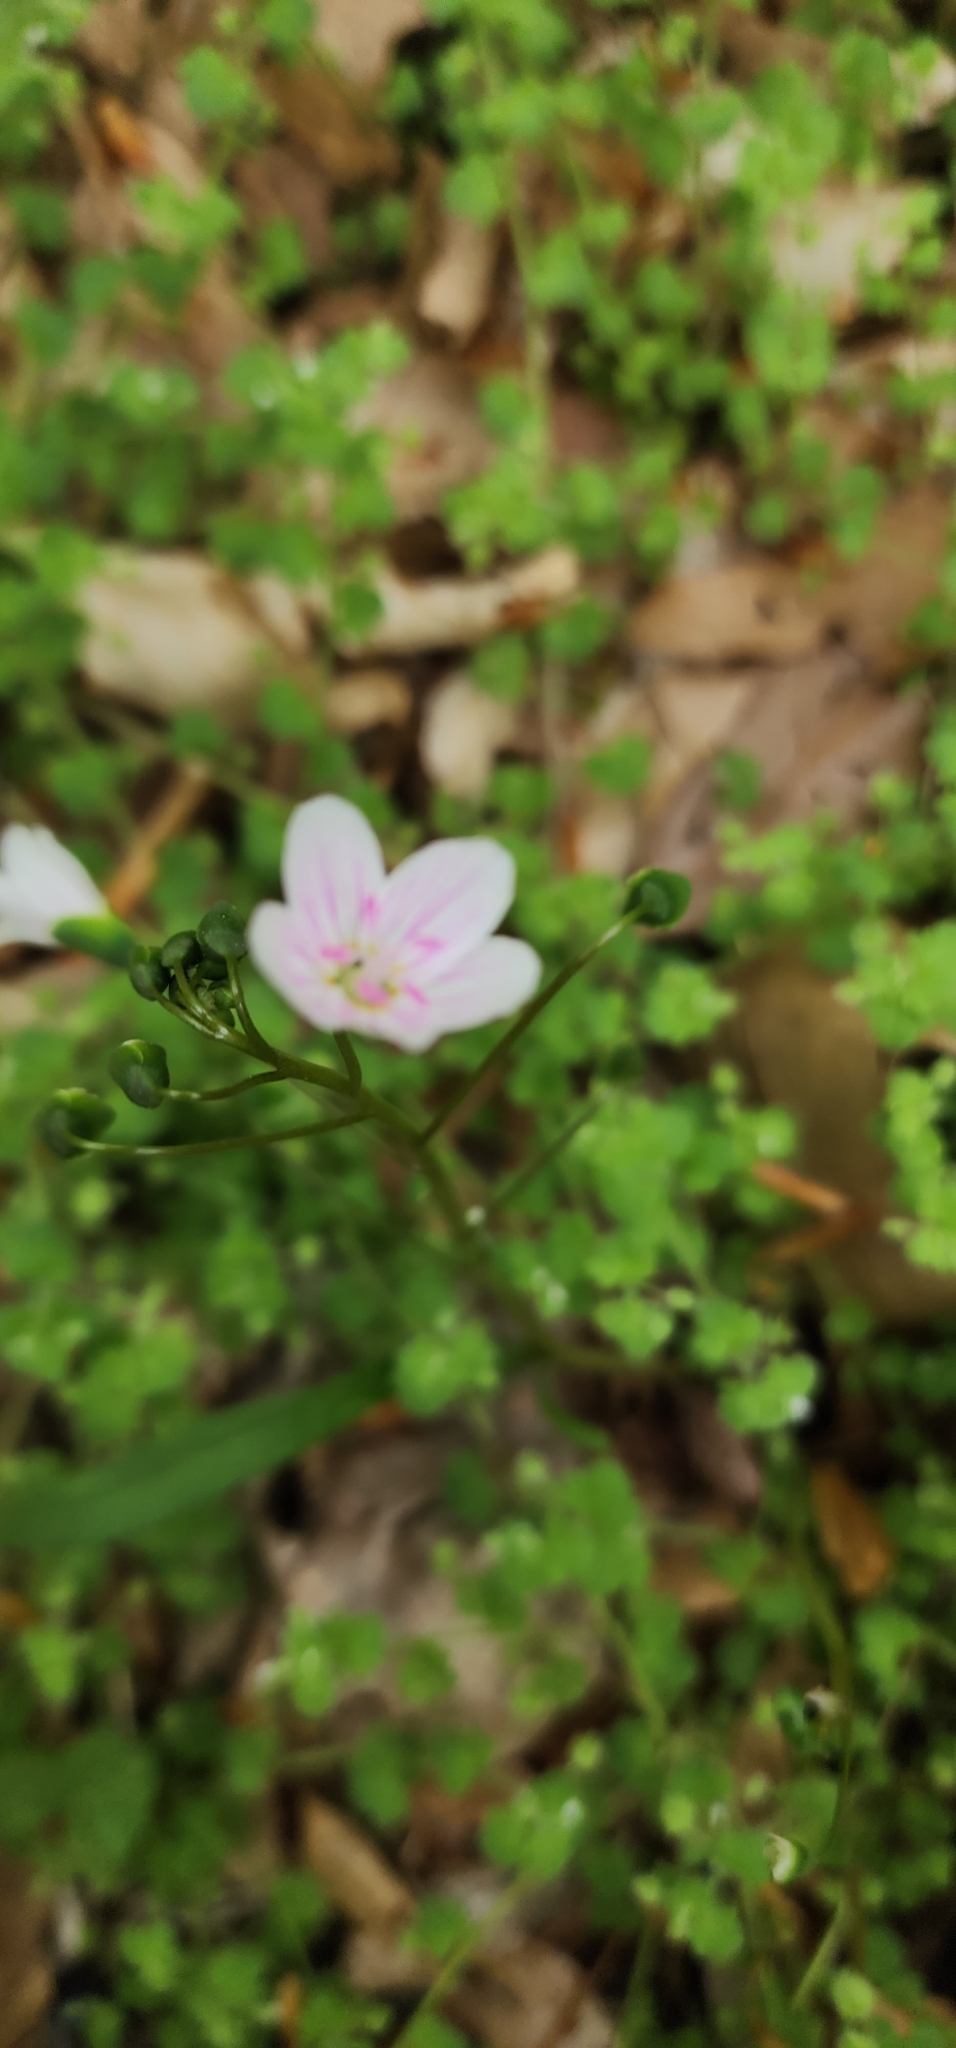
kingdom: Plantae
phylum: Tracheophyta
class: Magnoliopsida
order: Caryophyllales
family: Montiaceae
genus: Claytonia
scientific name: Claytonia virginica
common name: Virginia springbeauty
